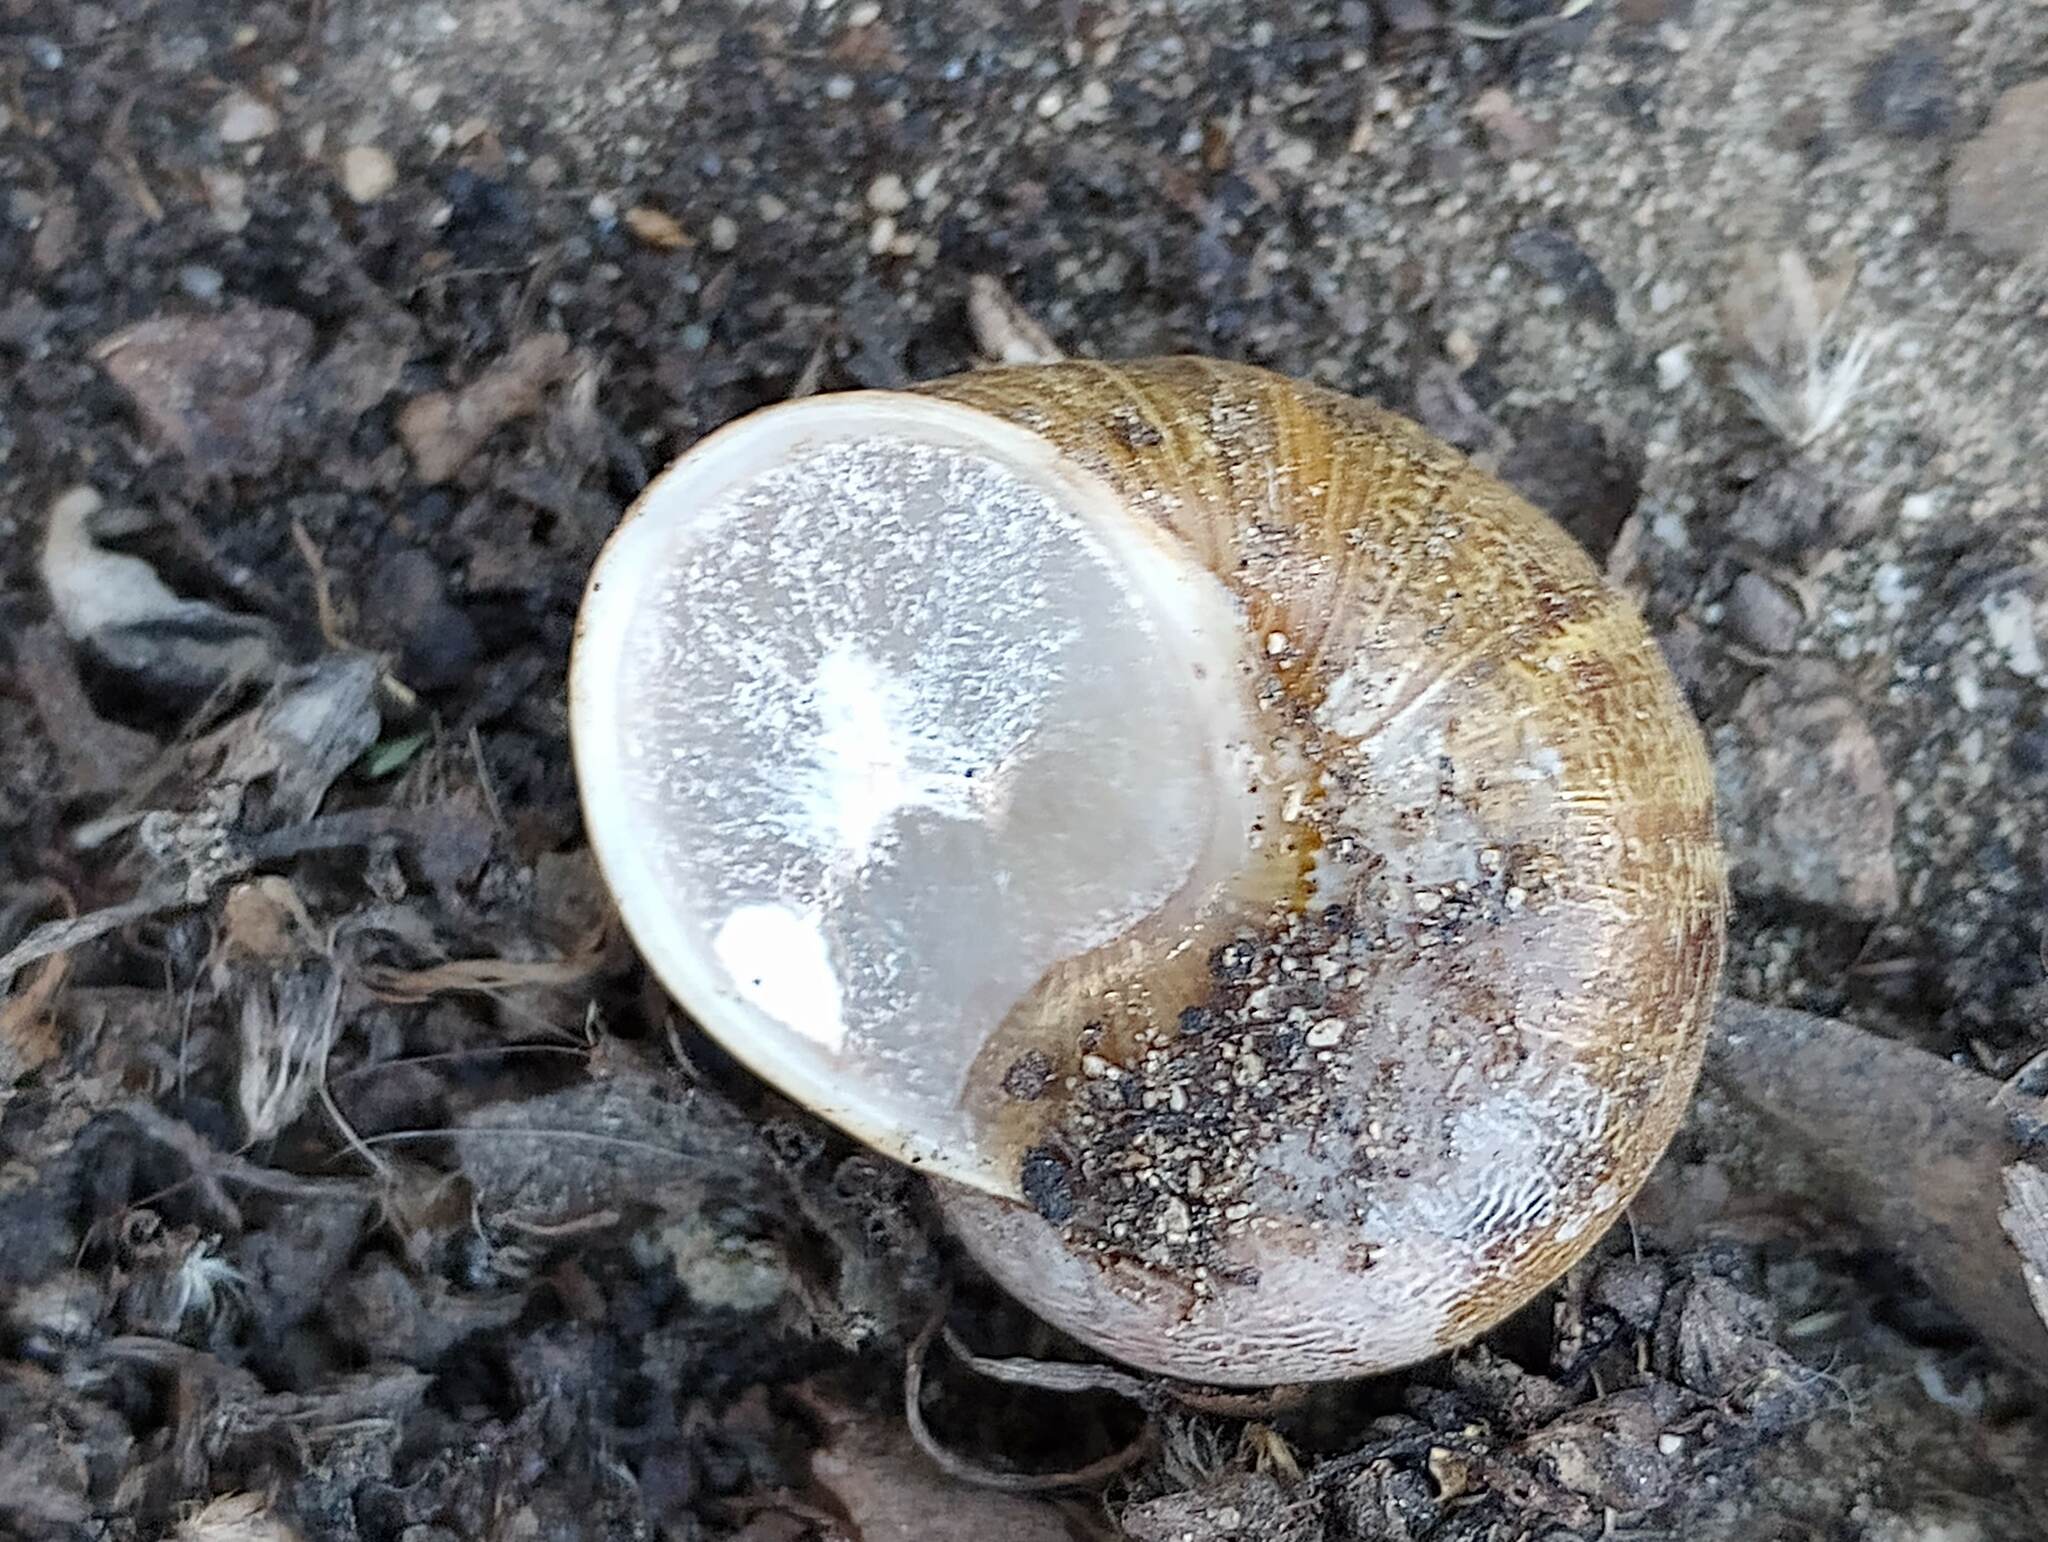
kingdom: Animalia
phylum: Mollusca
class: Gastropoda
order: Stylommatophora
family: Helicidae
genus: Cornu
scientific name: Cornu aspersum
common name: Brown garden snail
